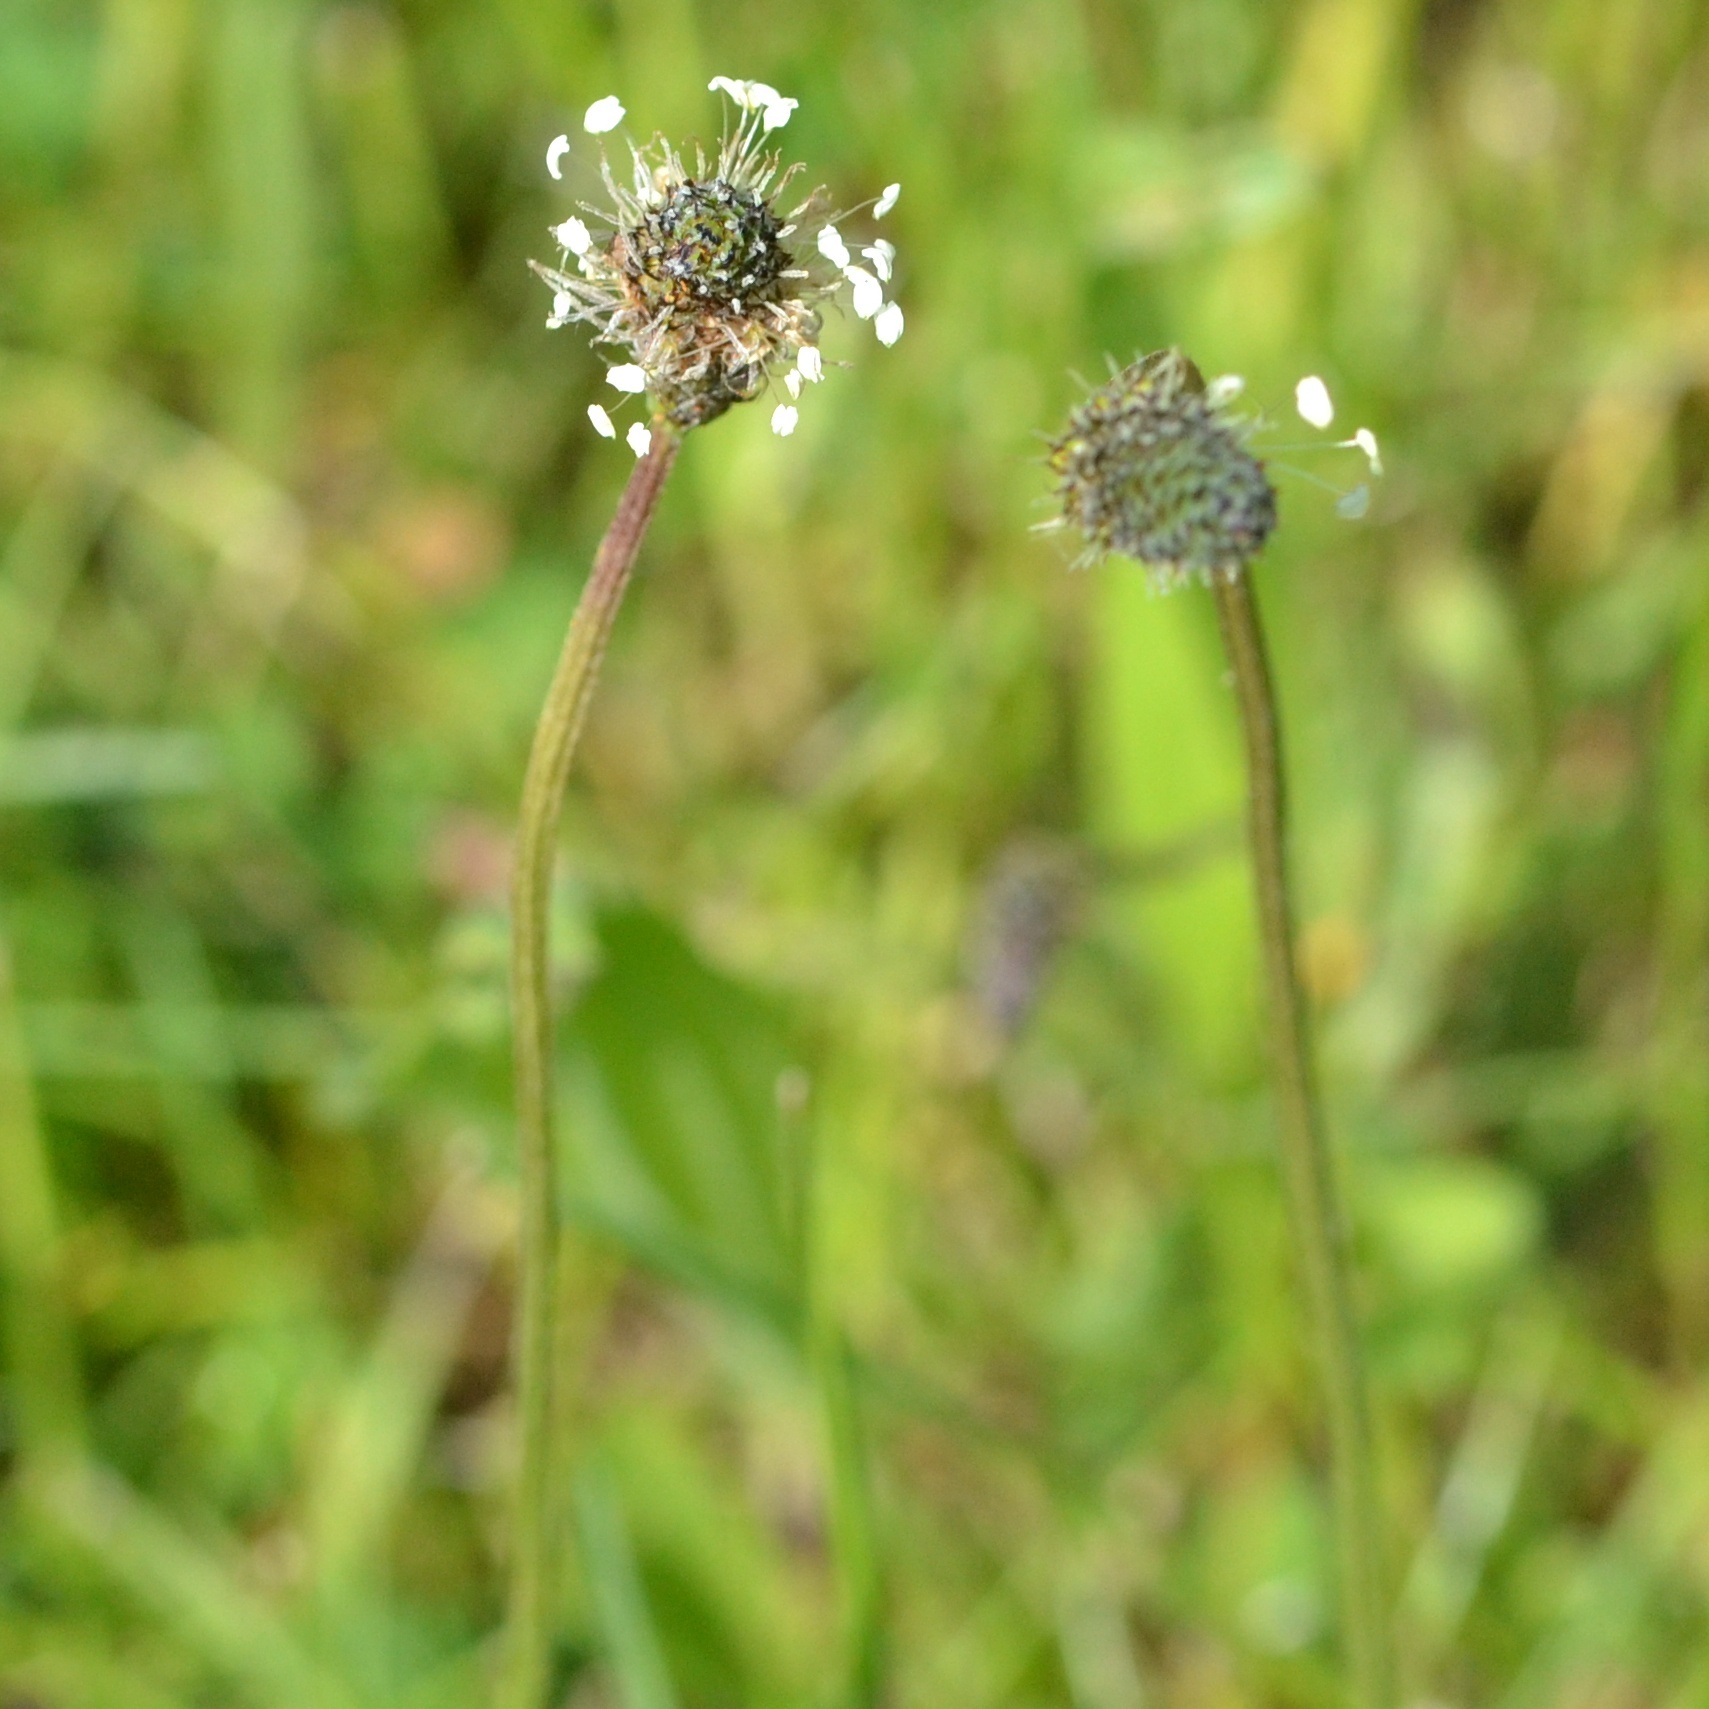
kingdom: Plantae
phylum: Tracheophyta
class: Magnoliopsida
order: Lamiales
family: Plantaginaceae
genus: Plantago
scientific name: Plantago lanceolata
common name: Ribwort plantain
